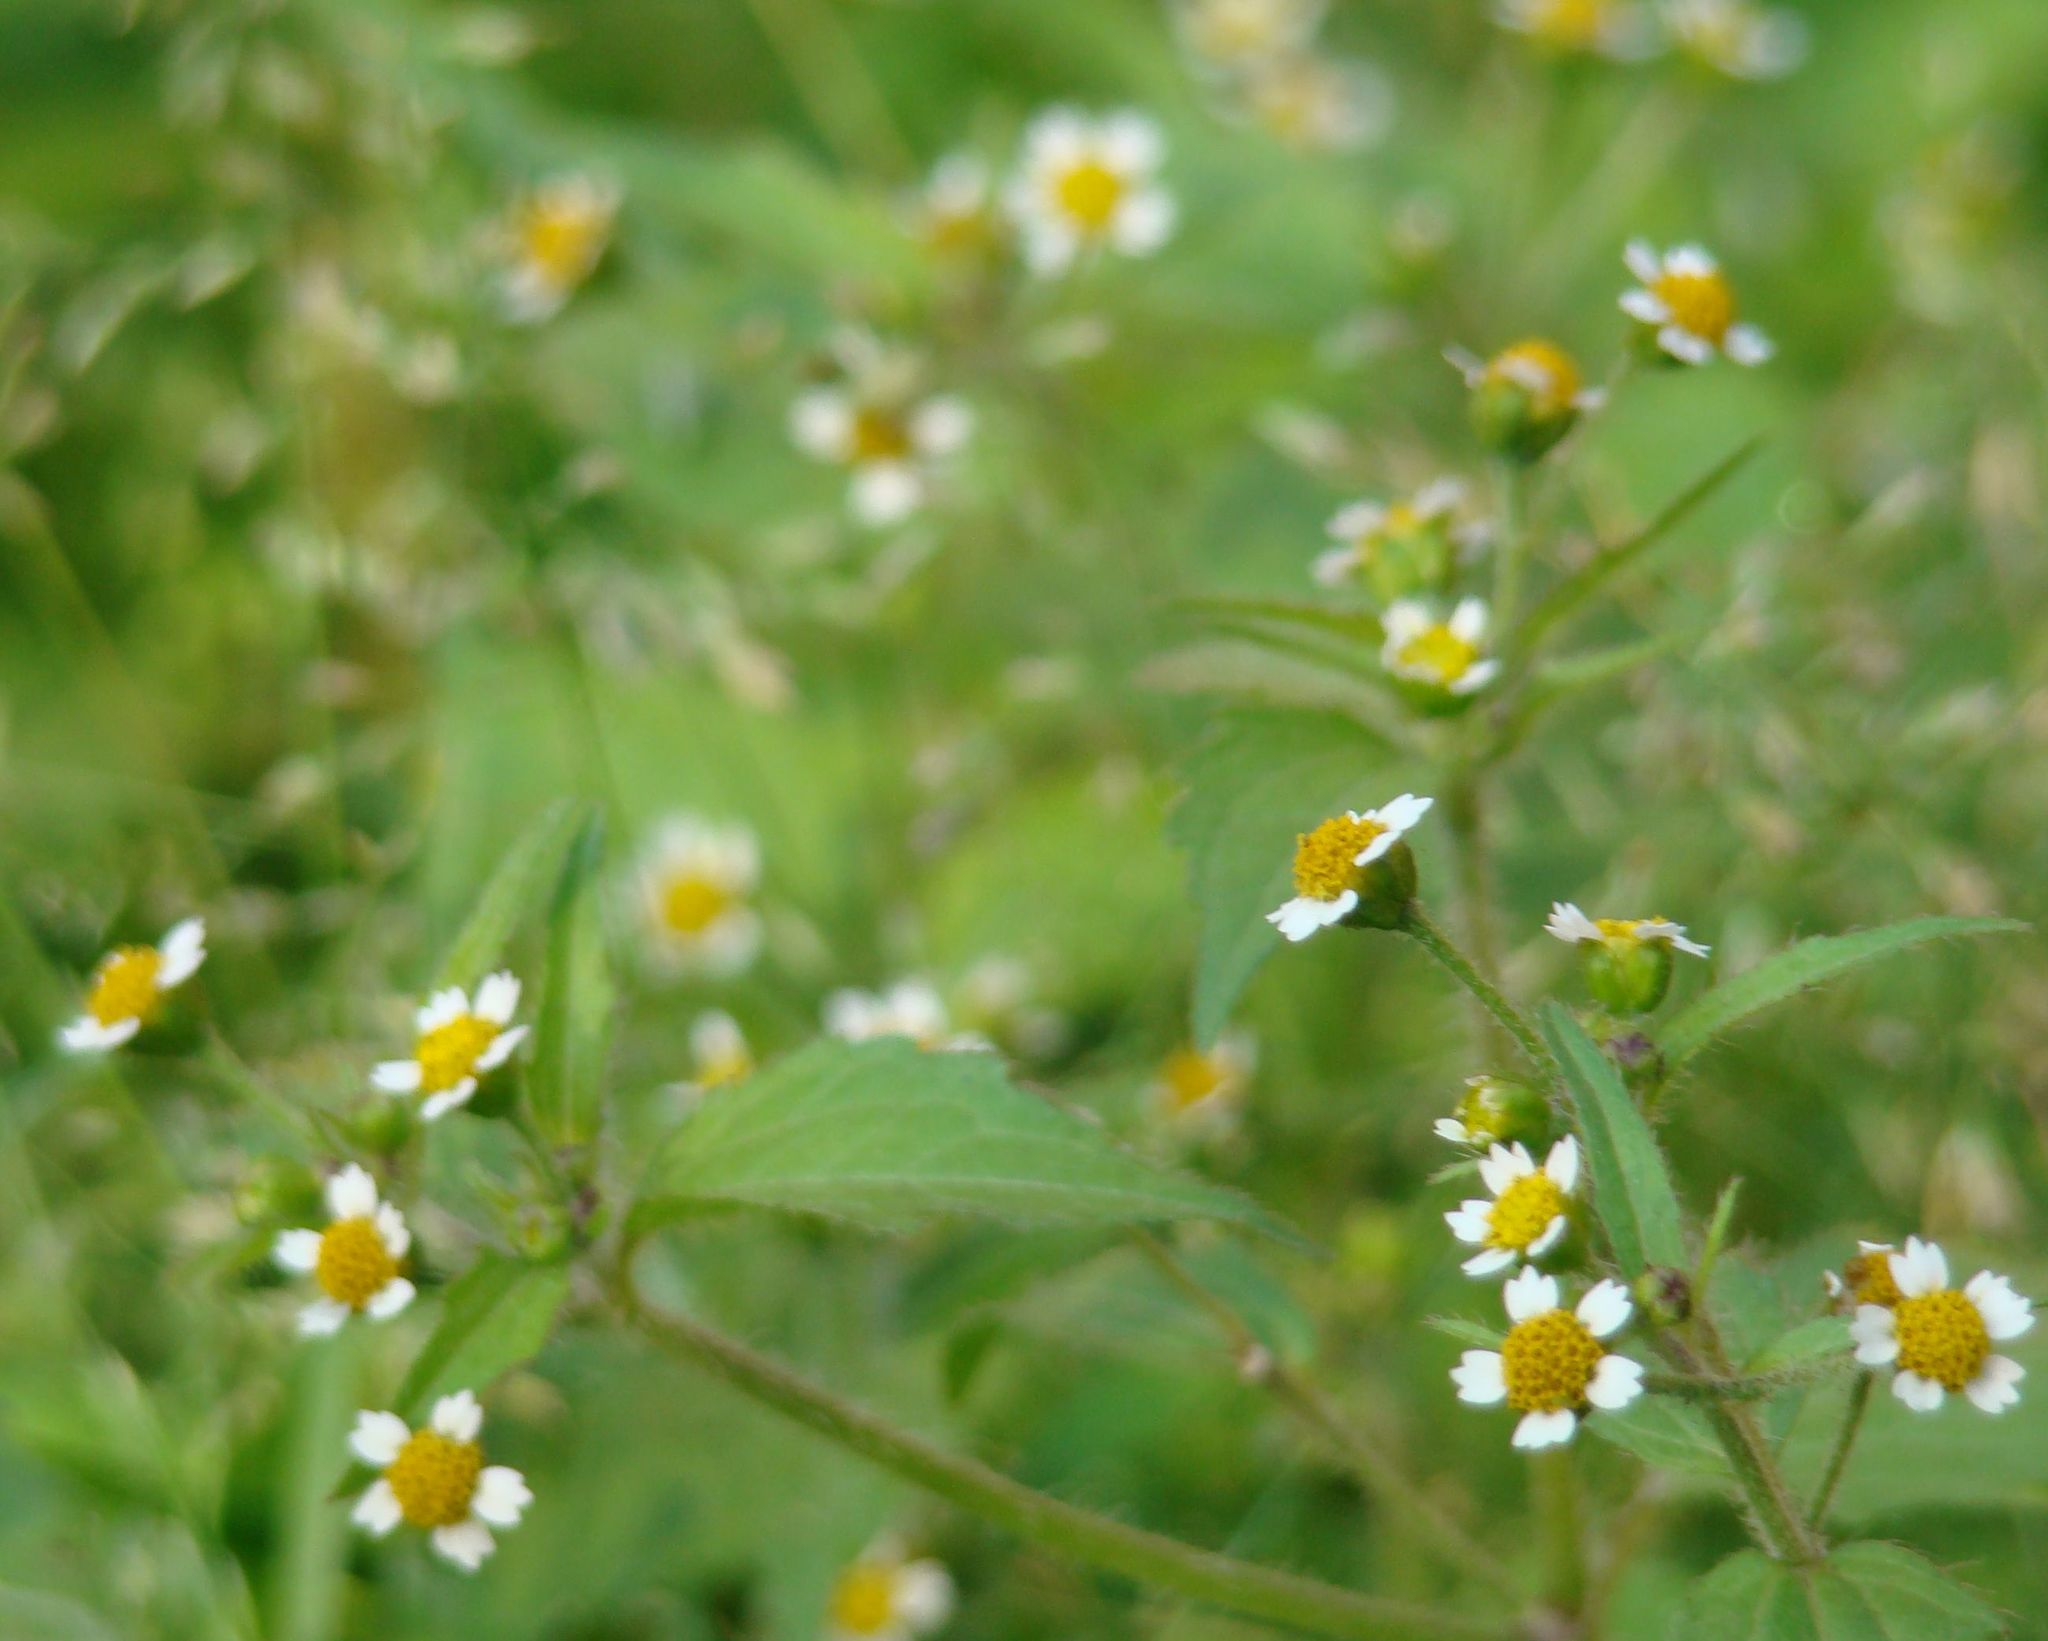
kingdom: Plantae
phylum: Tracheophyta
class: Magnoliopsida
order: Asterales
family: Asteraceae
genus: Galinsoga
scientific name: Galinsoga quadriradiata
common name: Shaggy soldier
